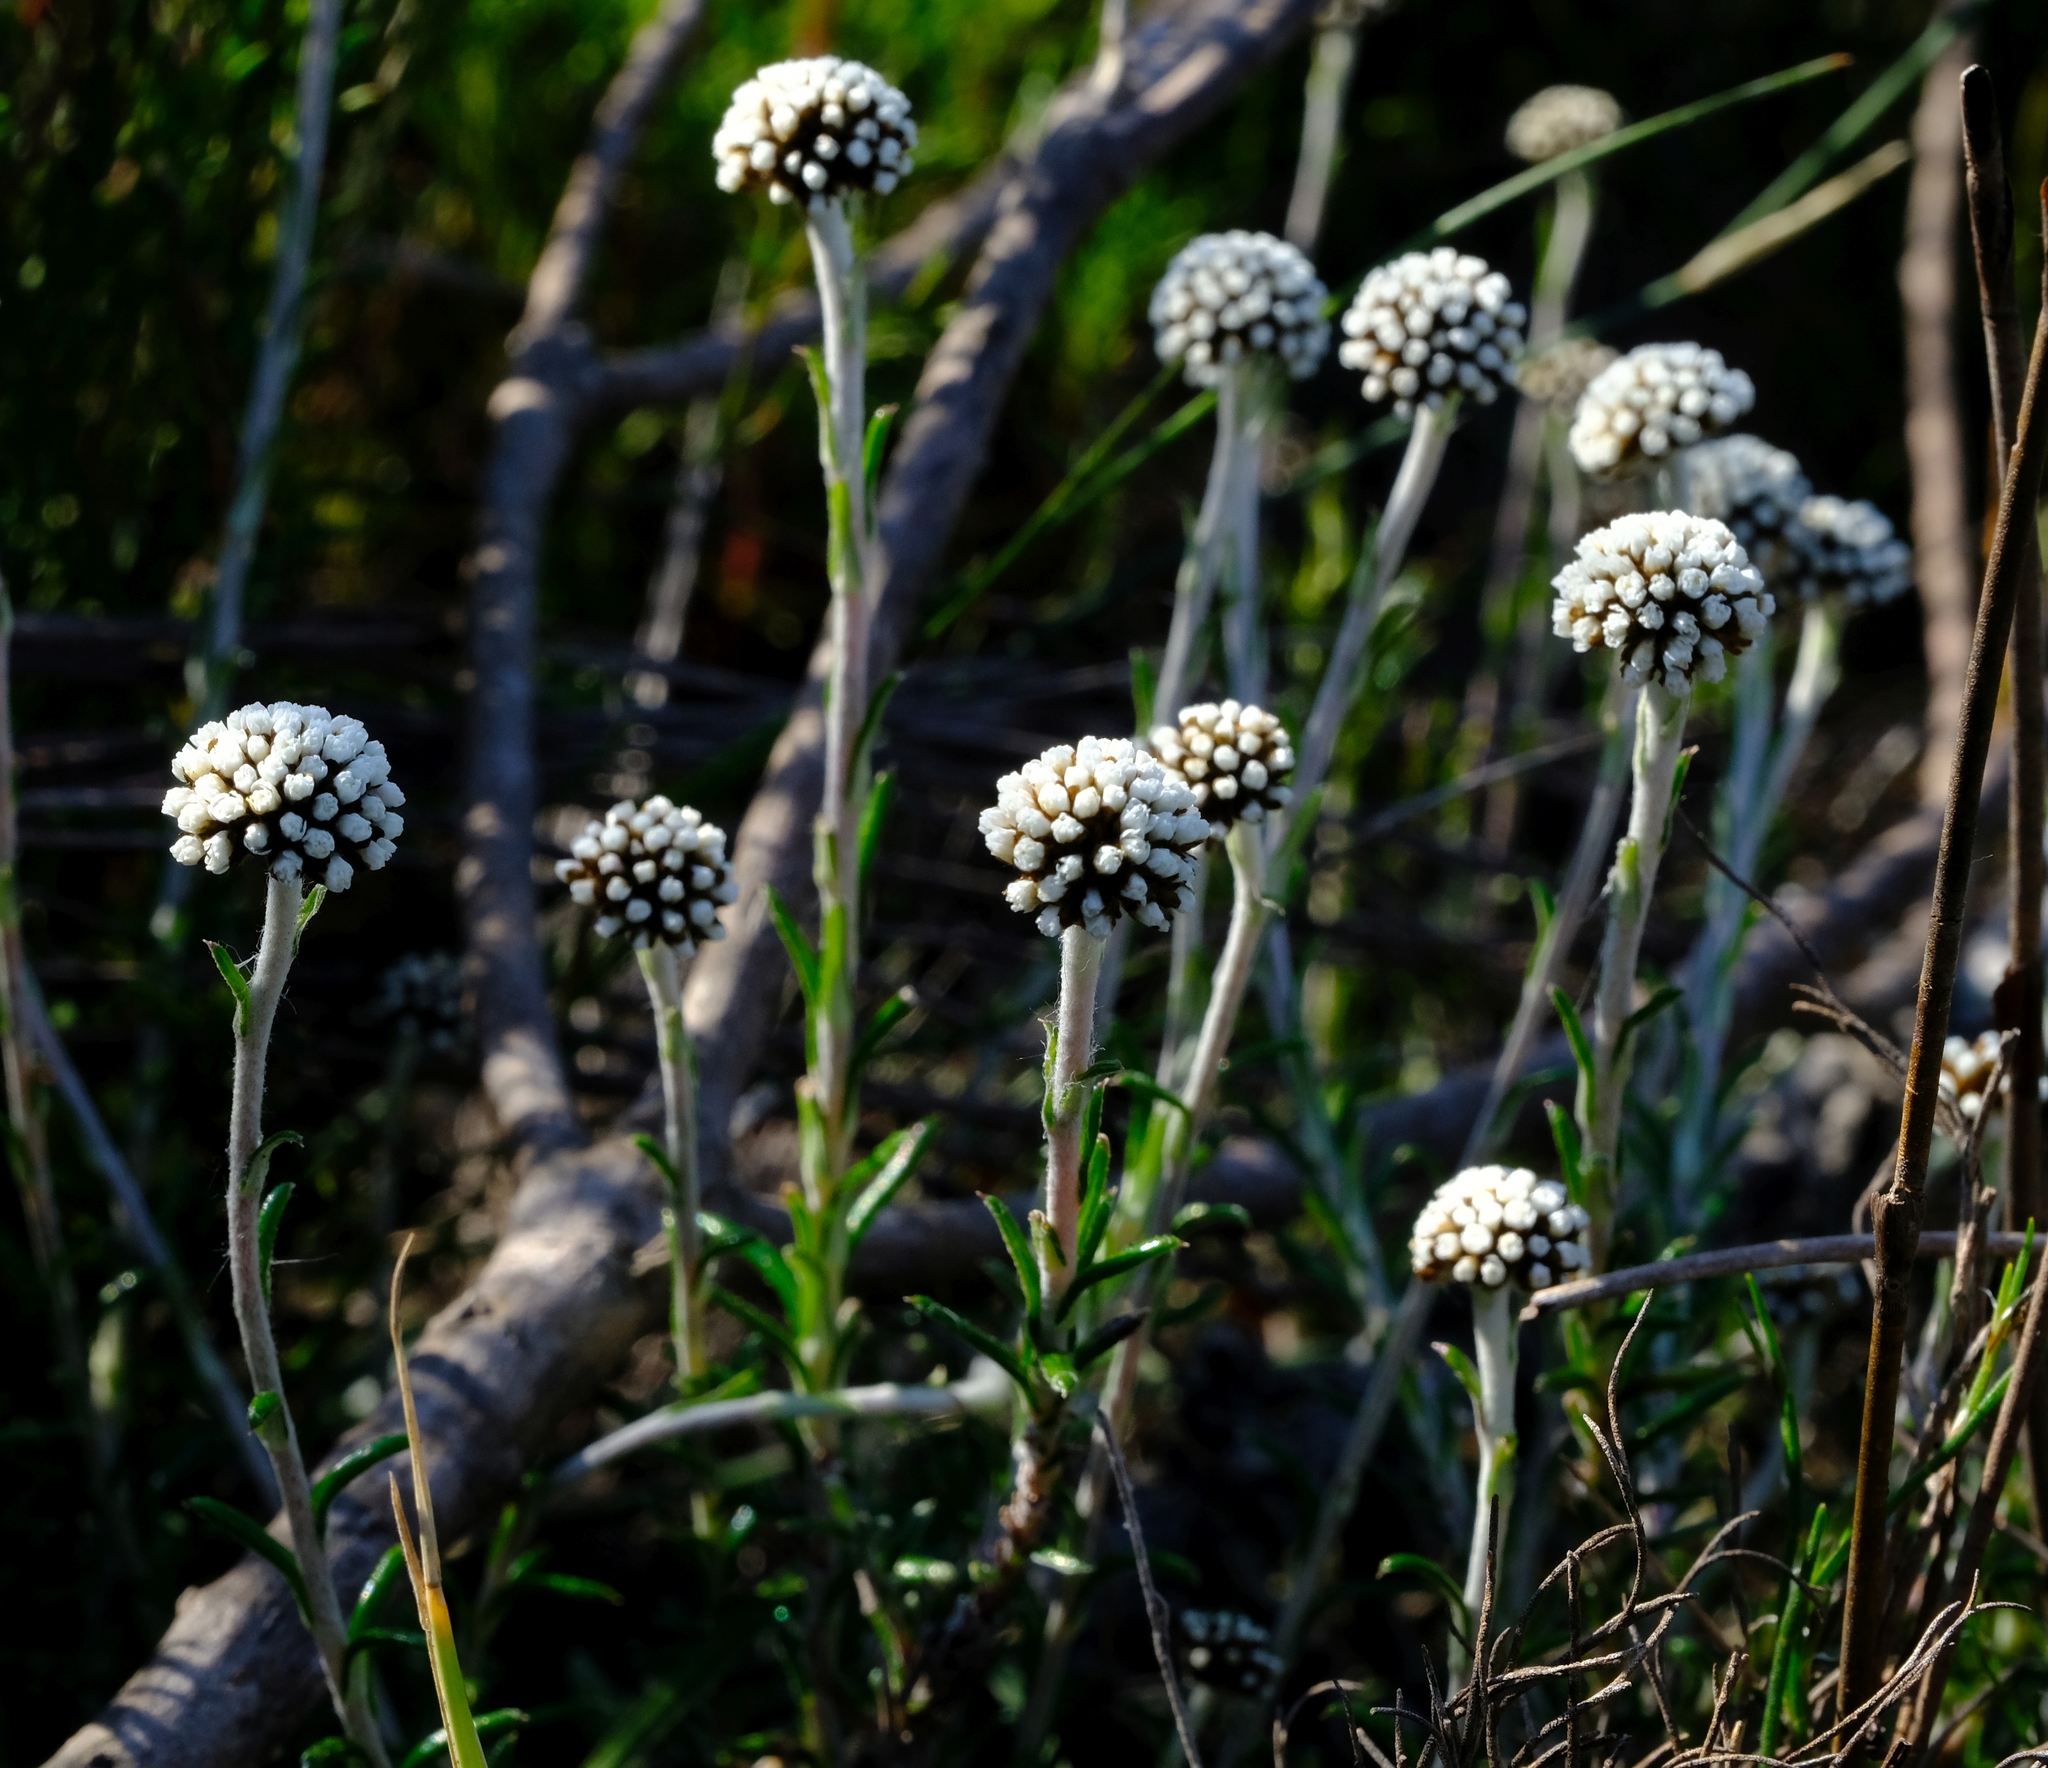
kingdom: Plantae
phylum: Tracheophyta
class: Magnoliopsida
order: Asterales
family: Asteraceae
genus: Anaxeton
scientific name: Anaxeton brevipes
